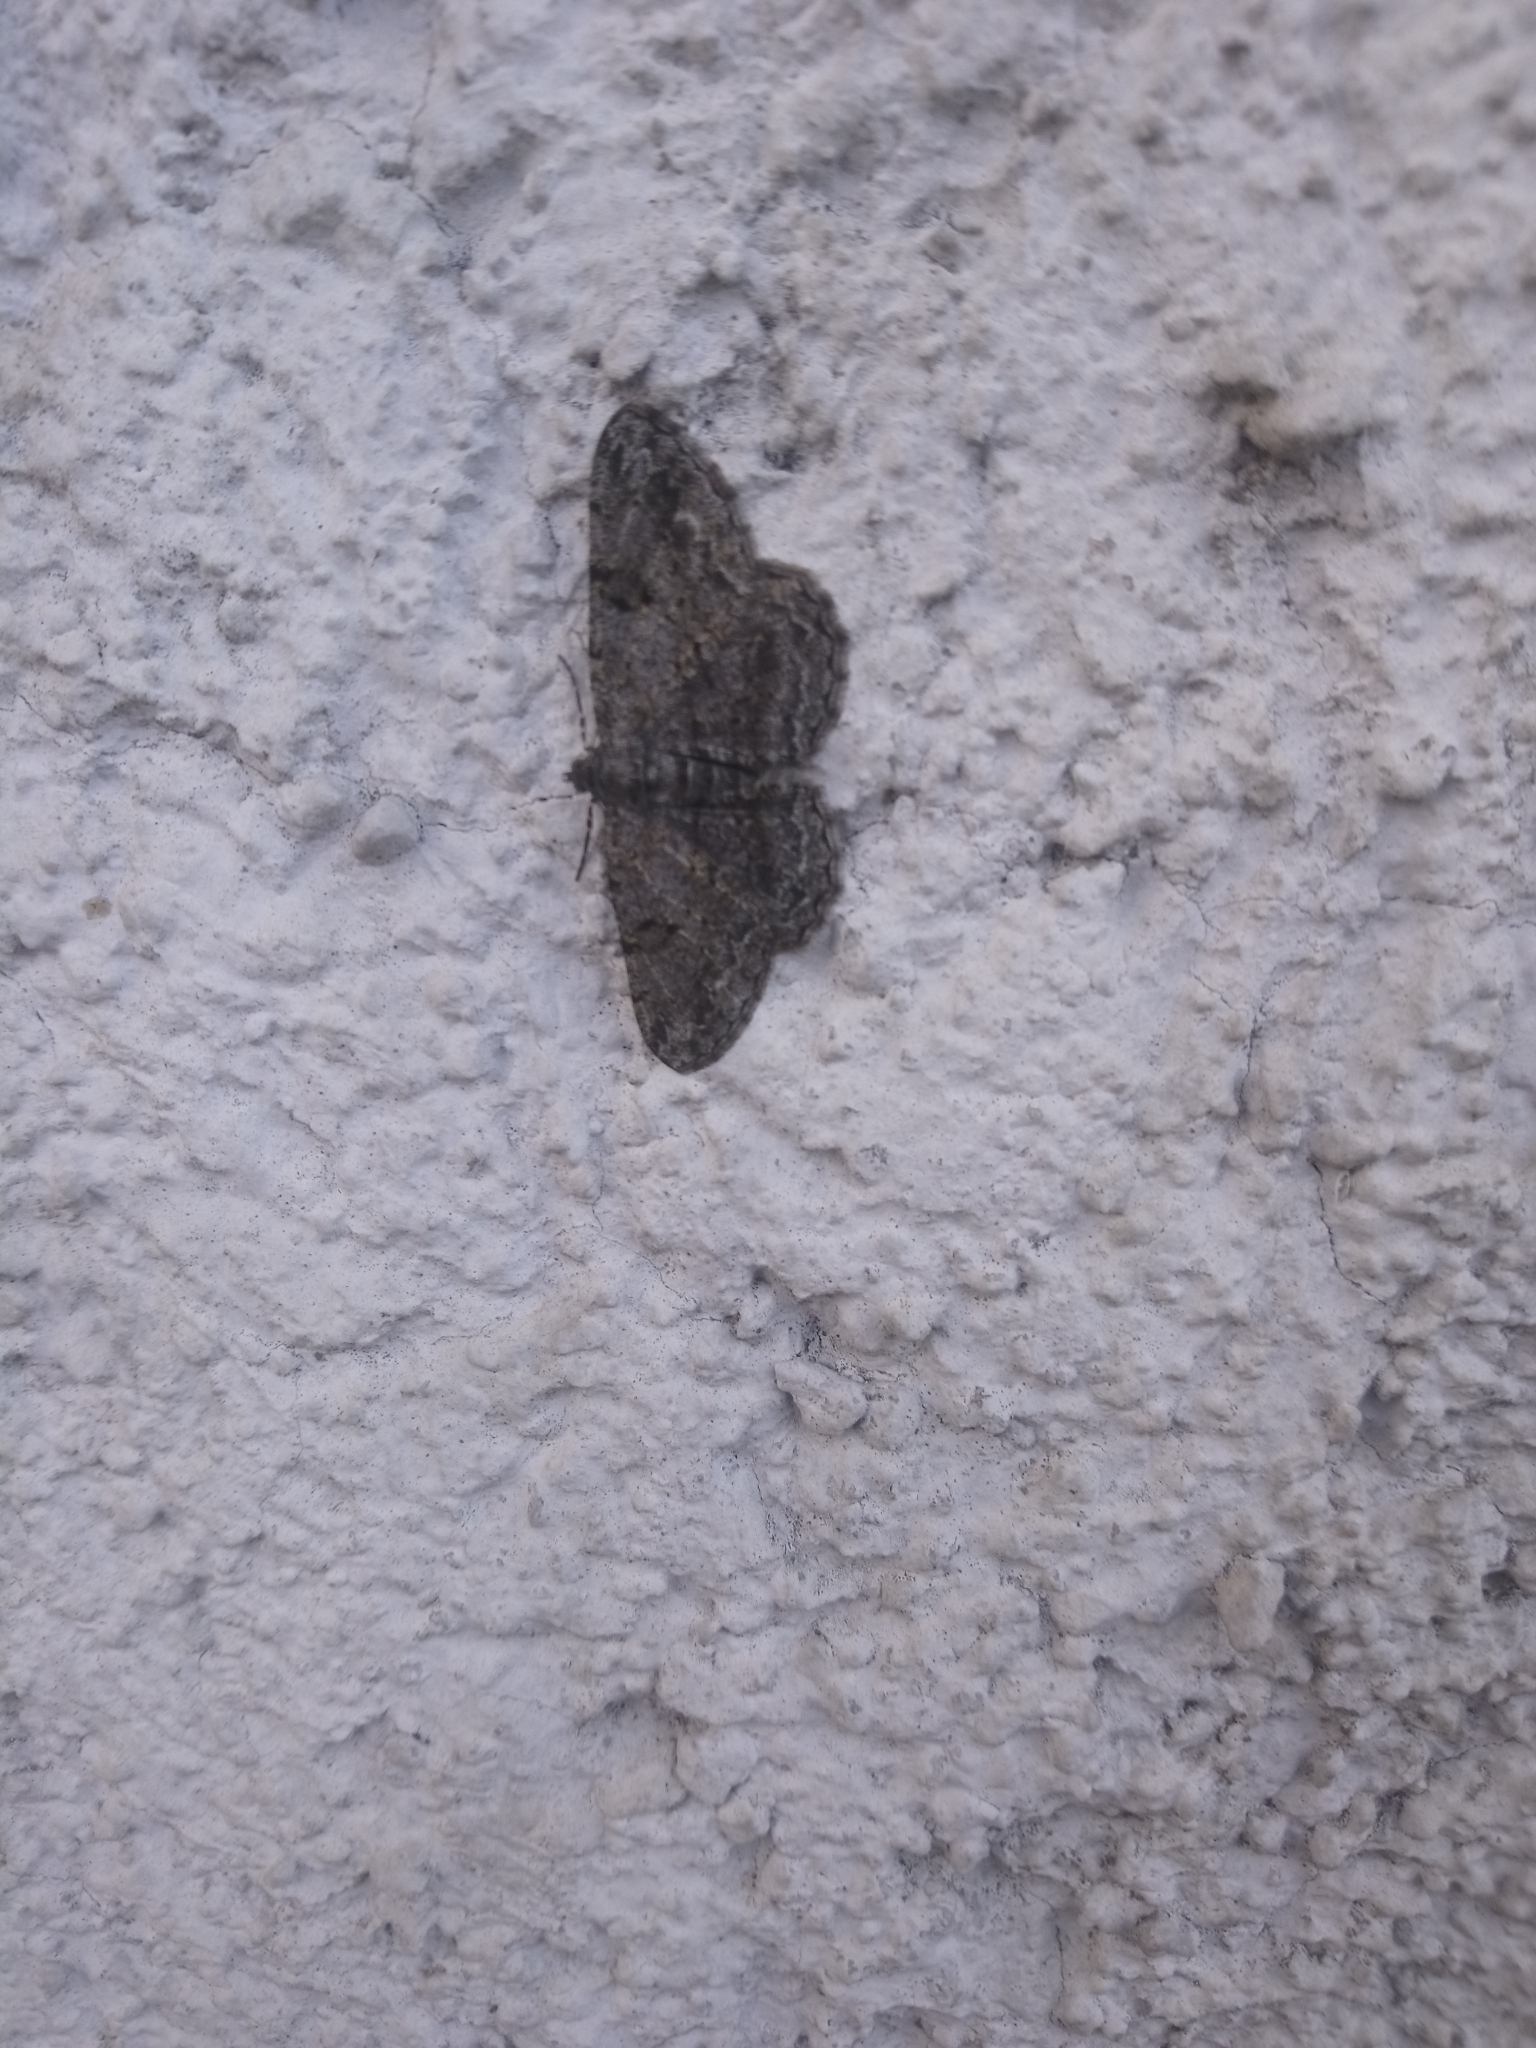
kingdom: Animalia
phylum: Arthropoda
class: Insecta
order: Lepidoptera
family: Geometridae
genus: Peribatodes
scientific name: Peribatodes rhomboidaria
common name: Willow beauty
